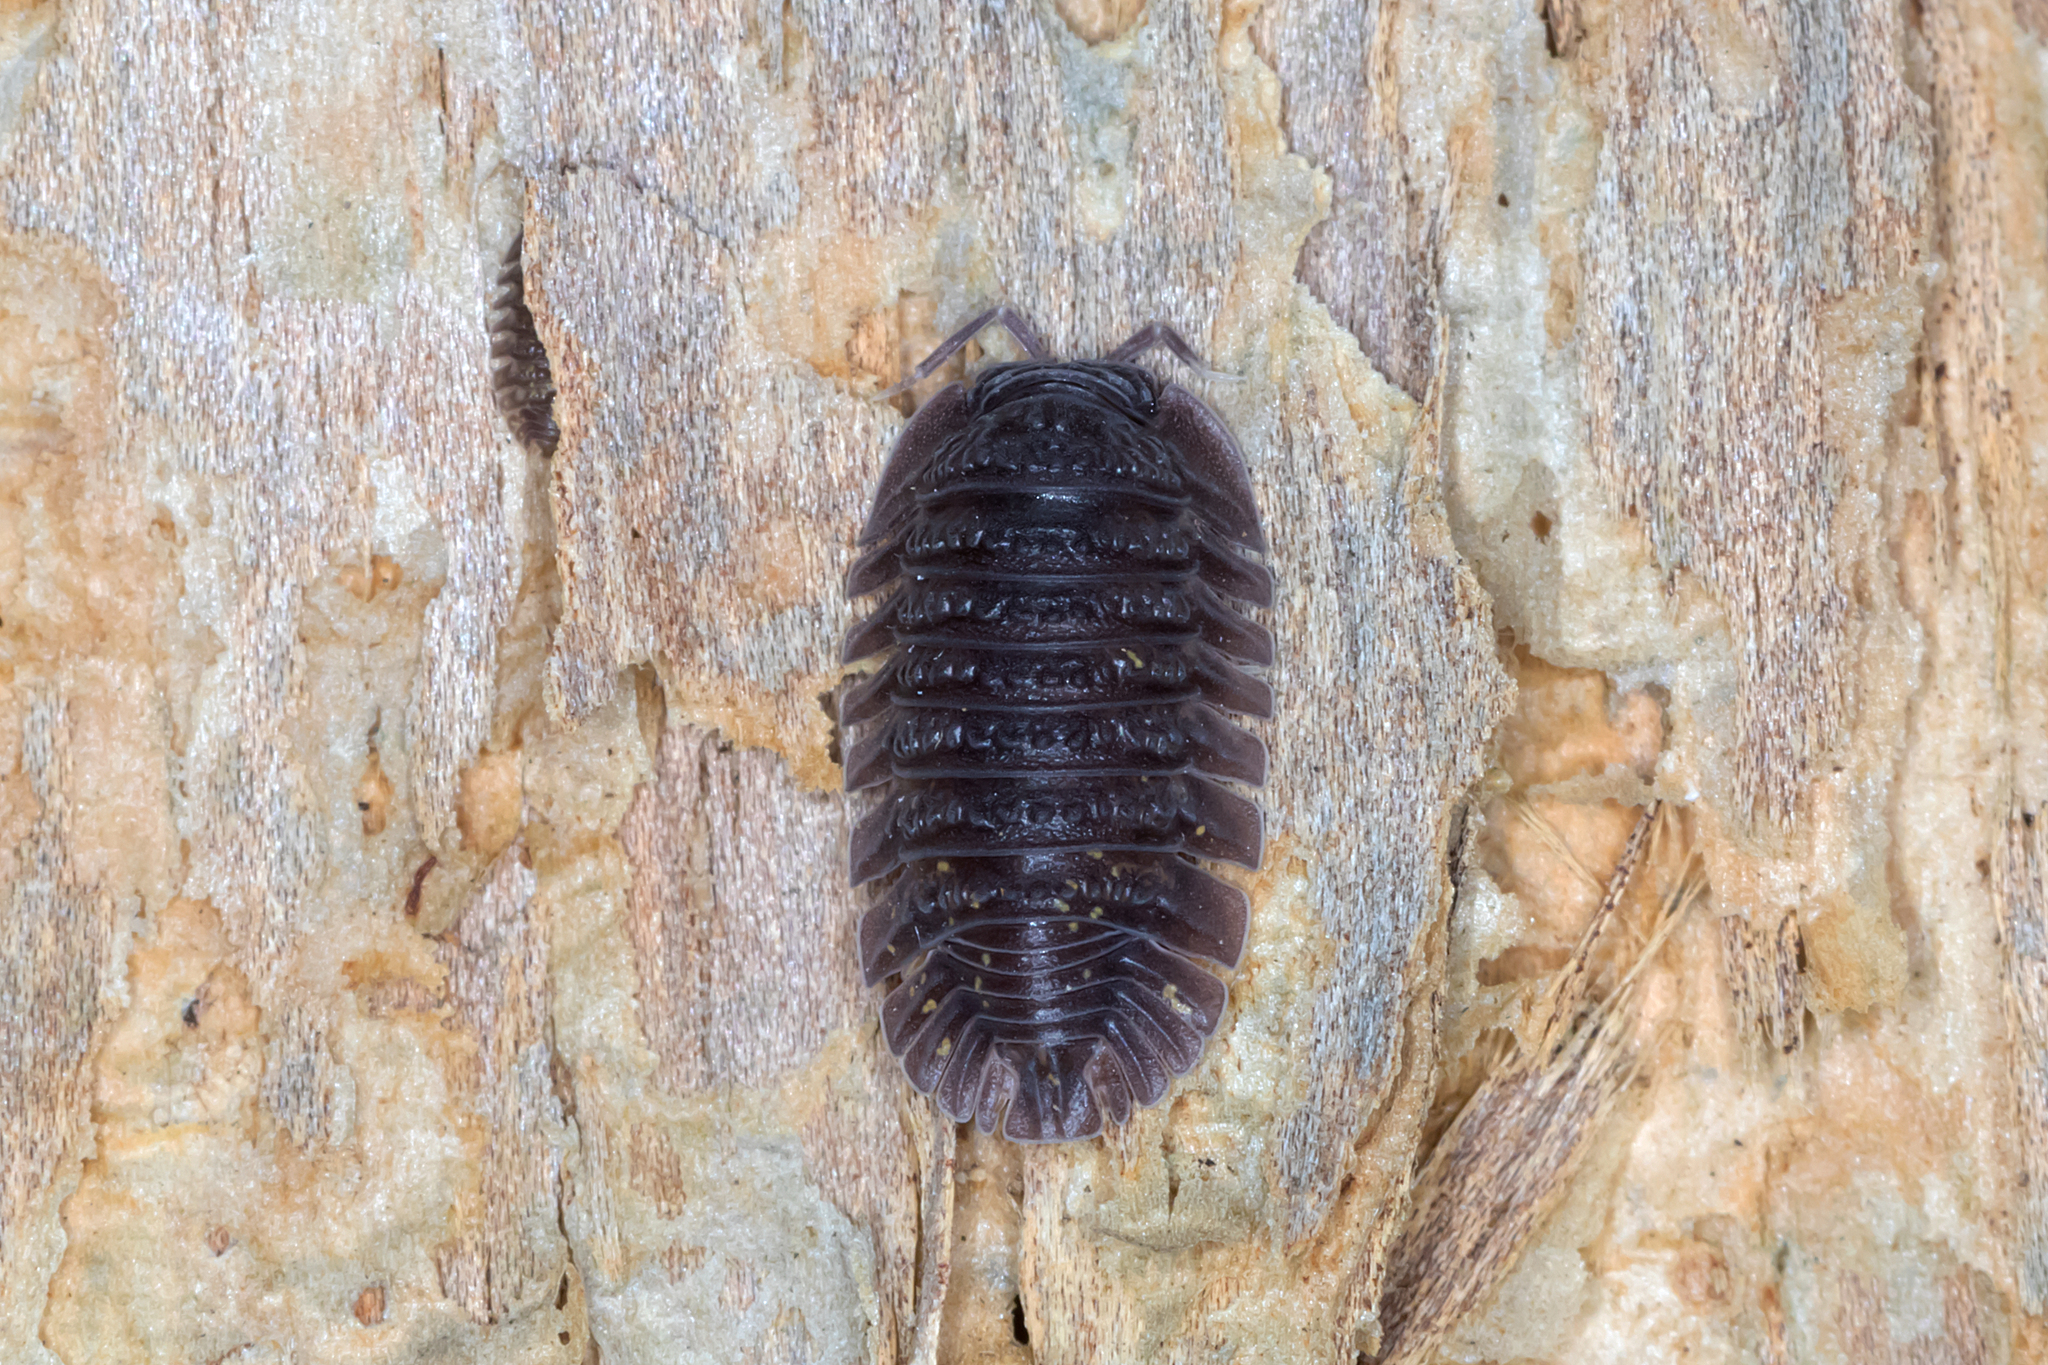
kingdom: Animalia
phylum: Arthropoda
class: Malacostraca
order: Isopoda
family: Armadillidae
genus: Merulana
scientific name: Merulana bicarinata
